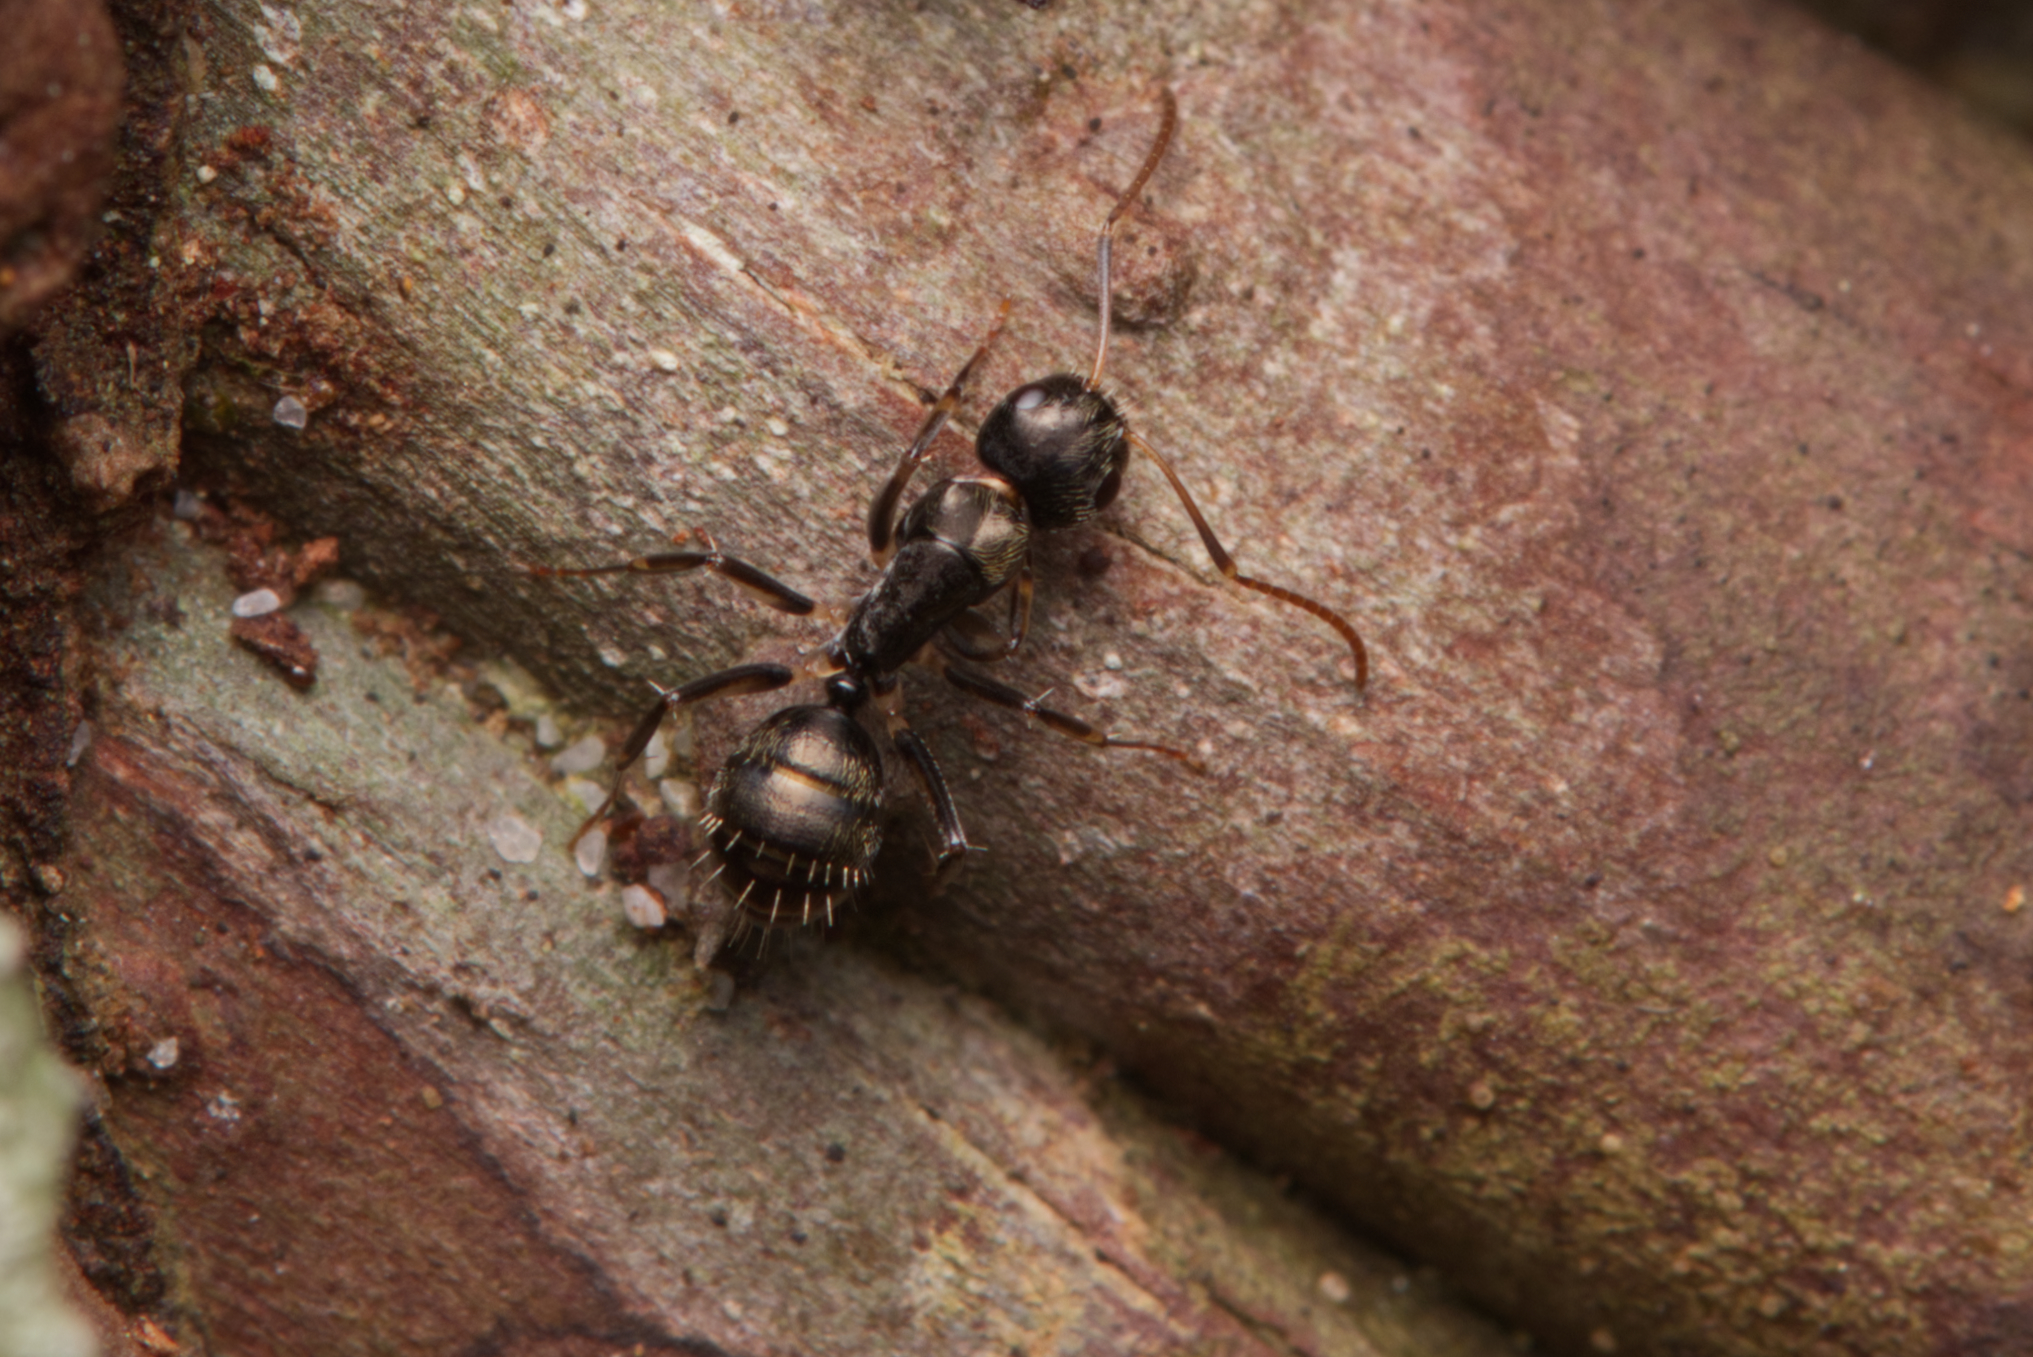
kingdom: Animalia
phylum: Arthropoda
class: Insecta
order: Hymenoptera
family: Formicidae
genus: Camponotus
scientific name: Camponotus froggatti
